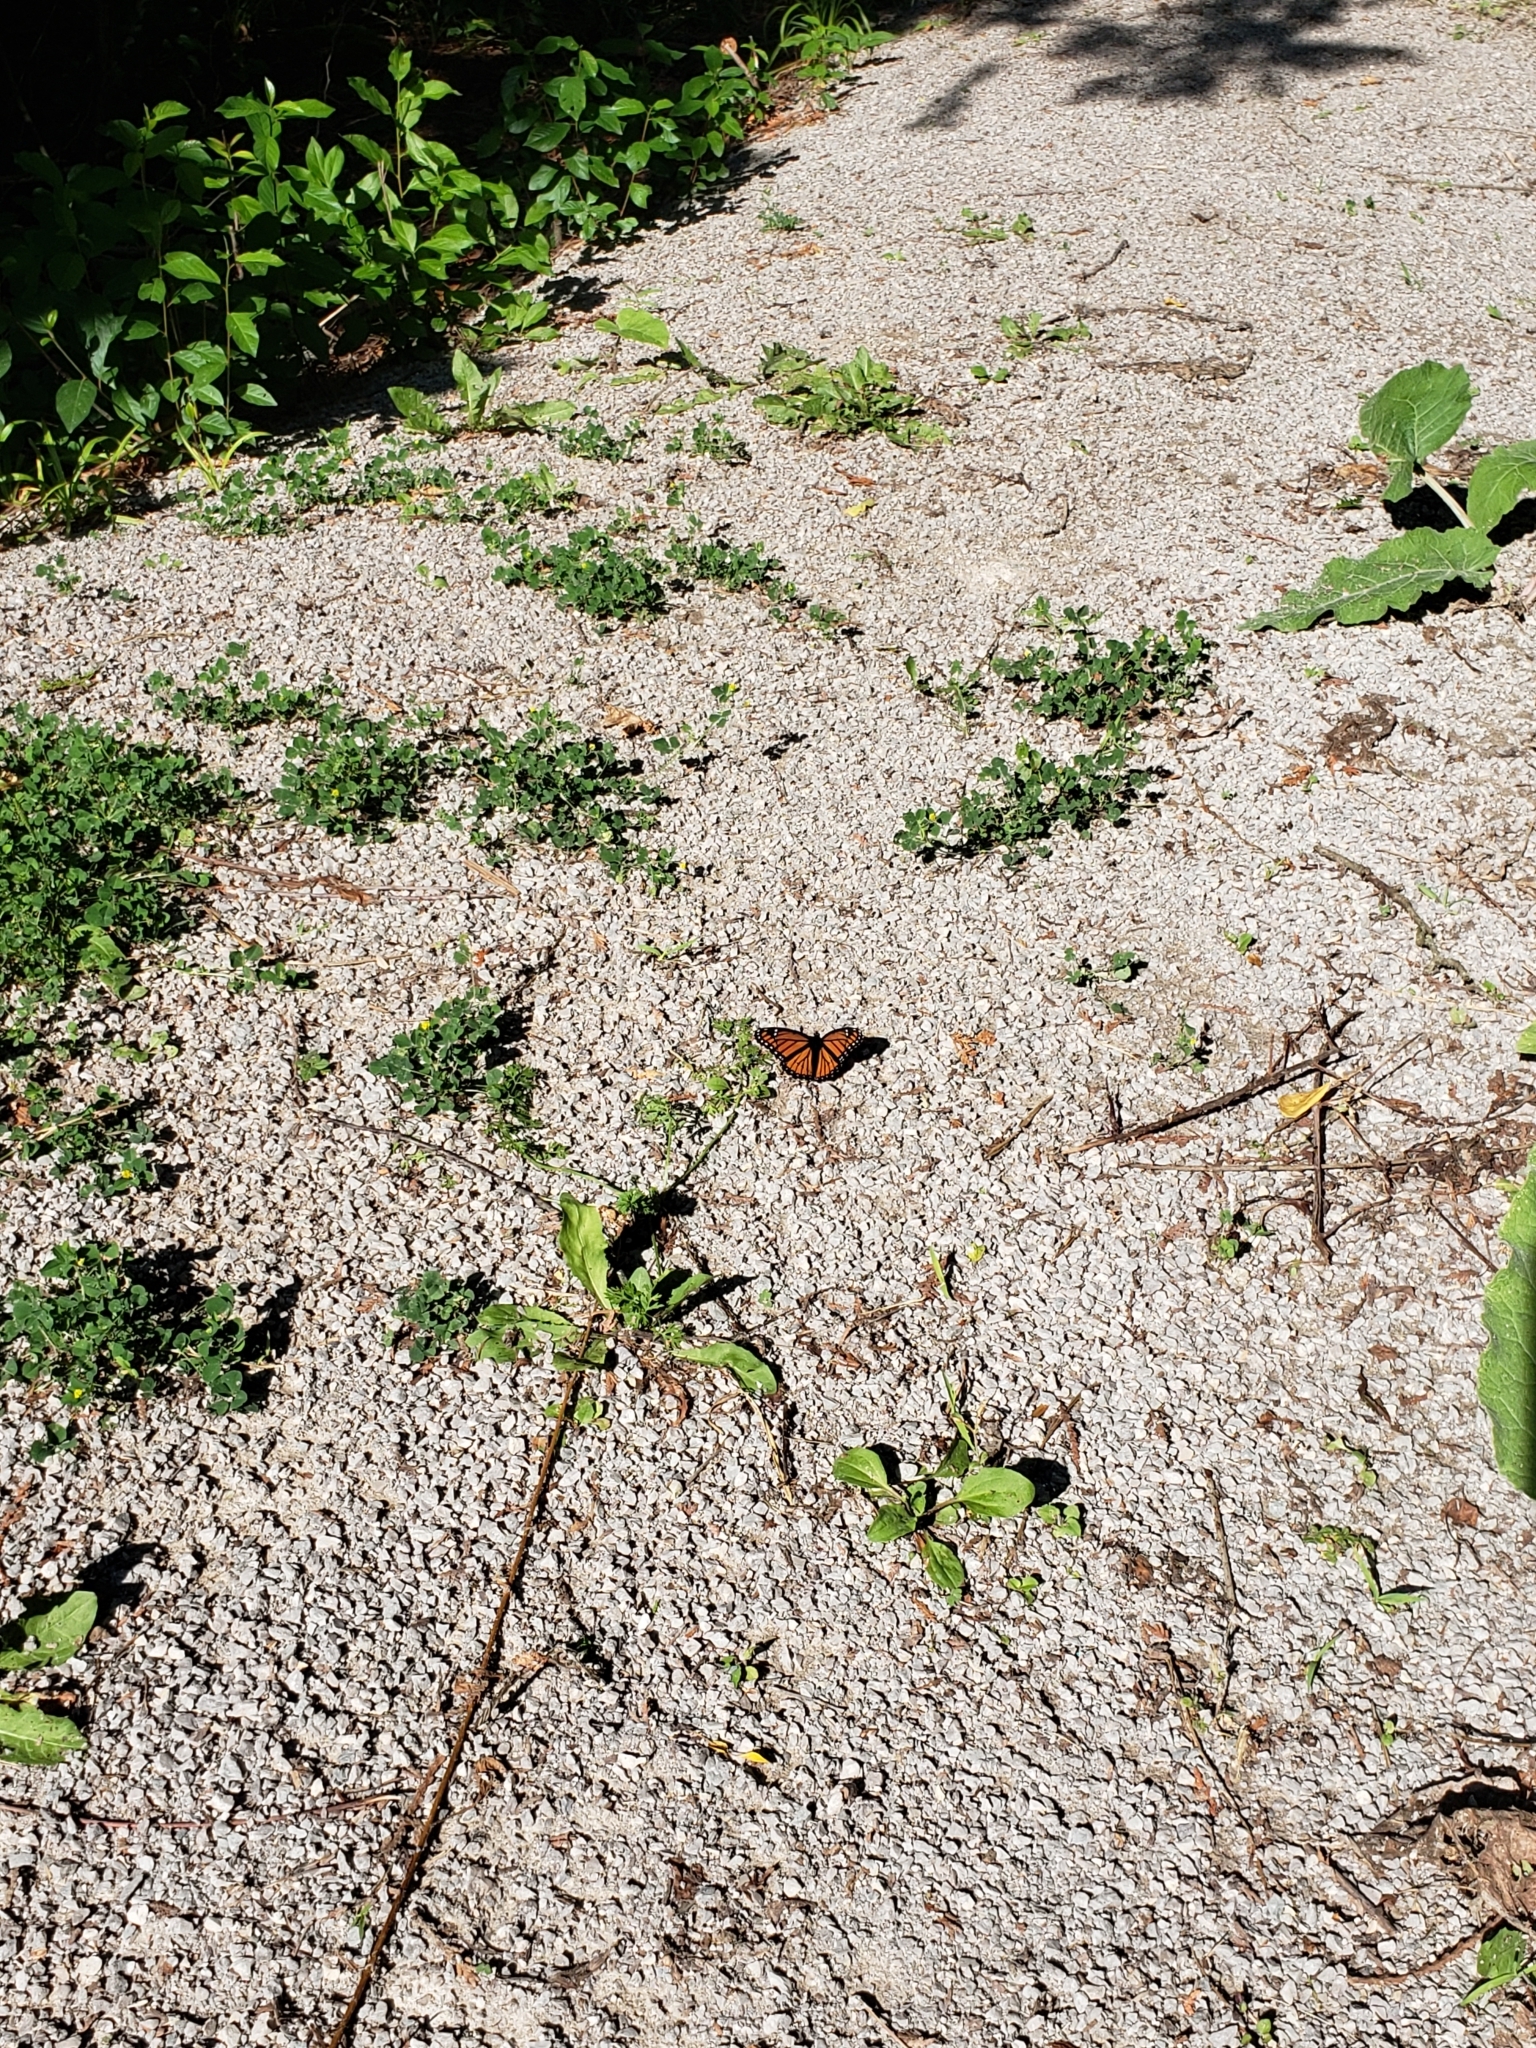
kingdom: Animalia
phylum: Arthropoda
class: Insecta
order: Lepidoptera
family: Nymphalidae
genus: Limenitis
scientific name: Limenitis archippus
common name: Viceroy
